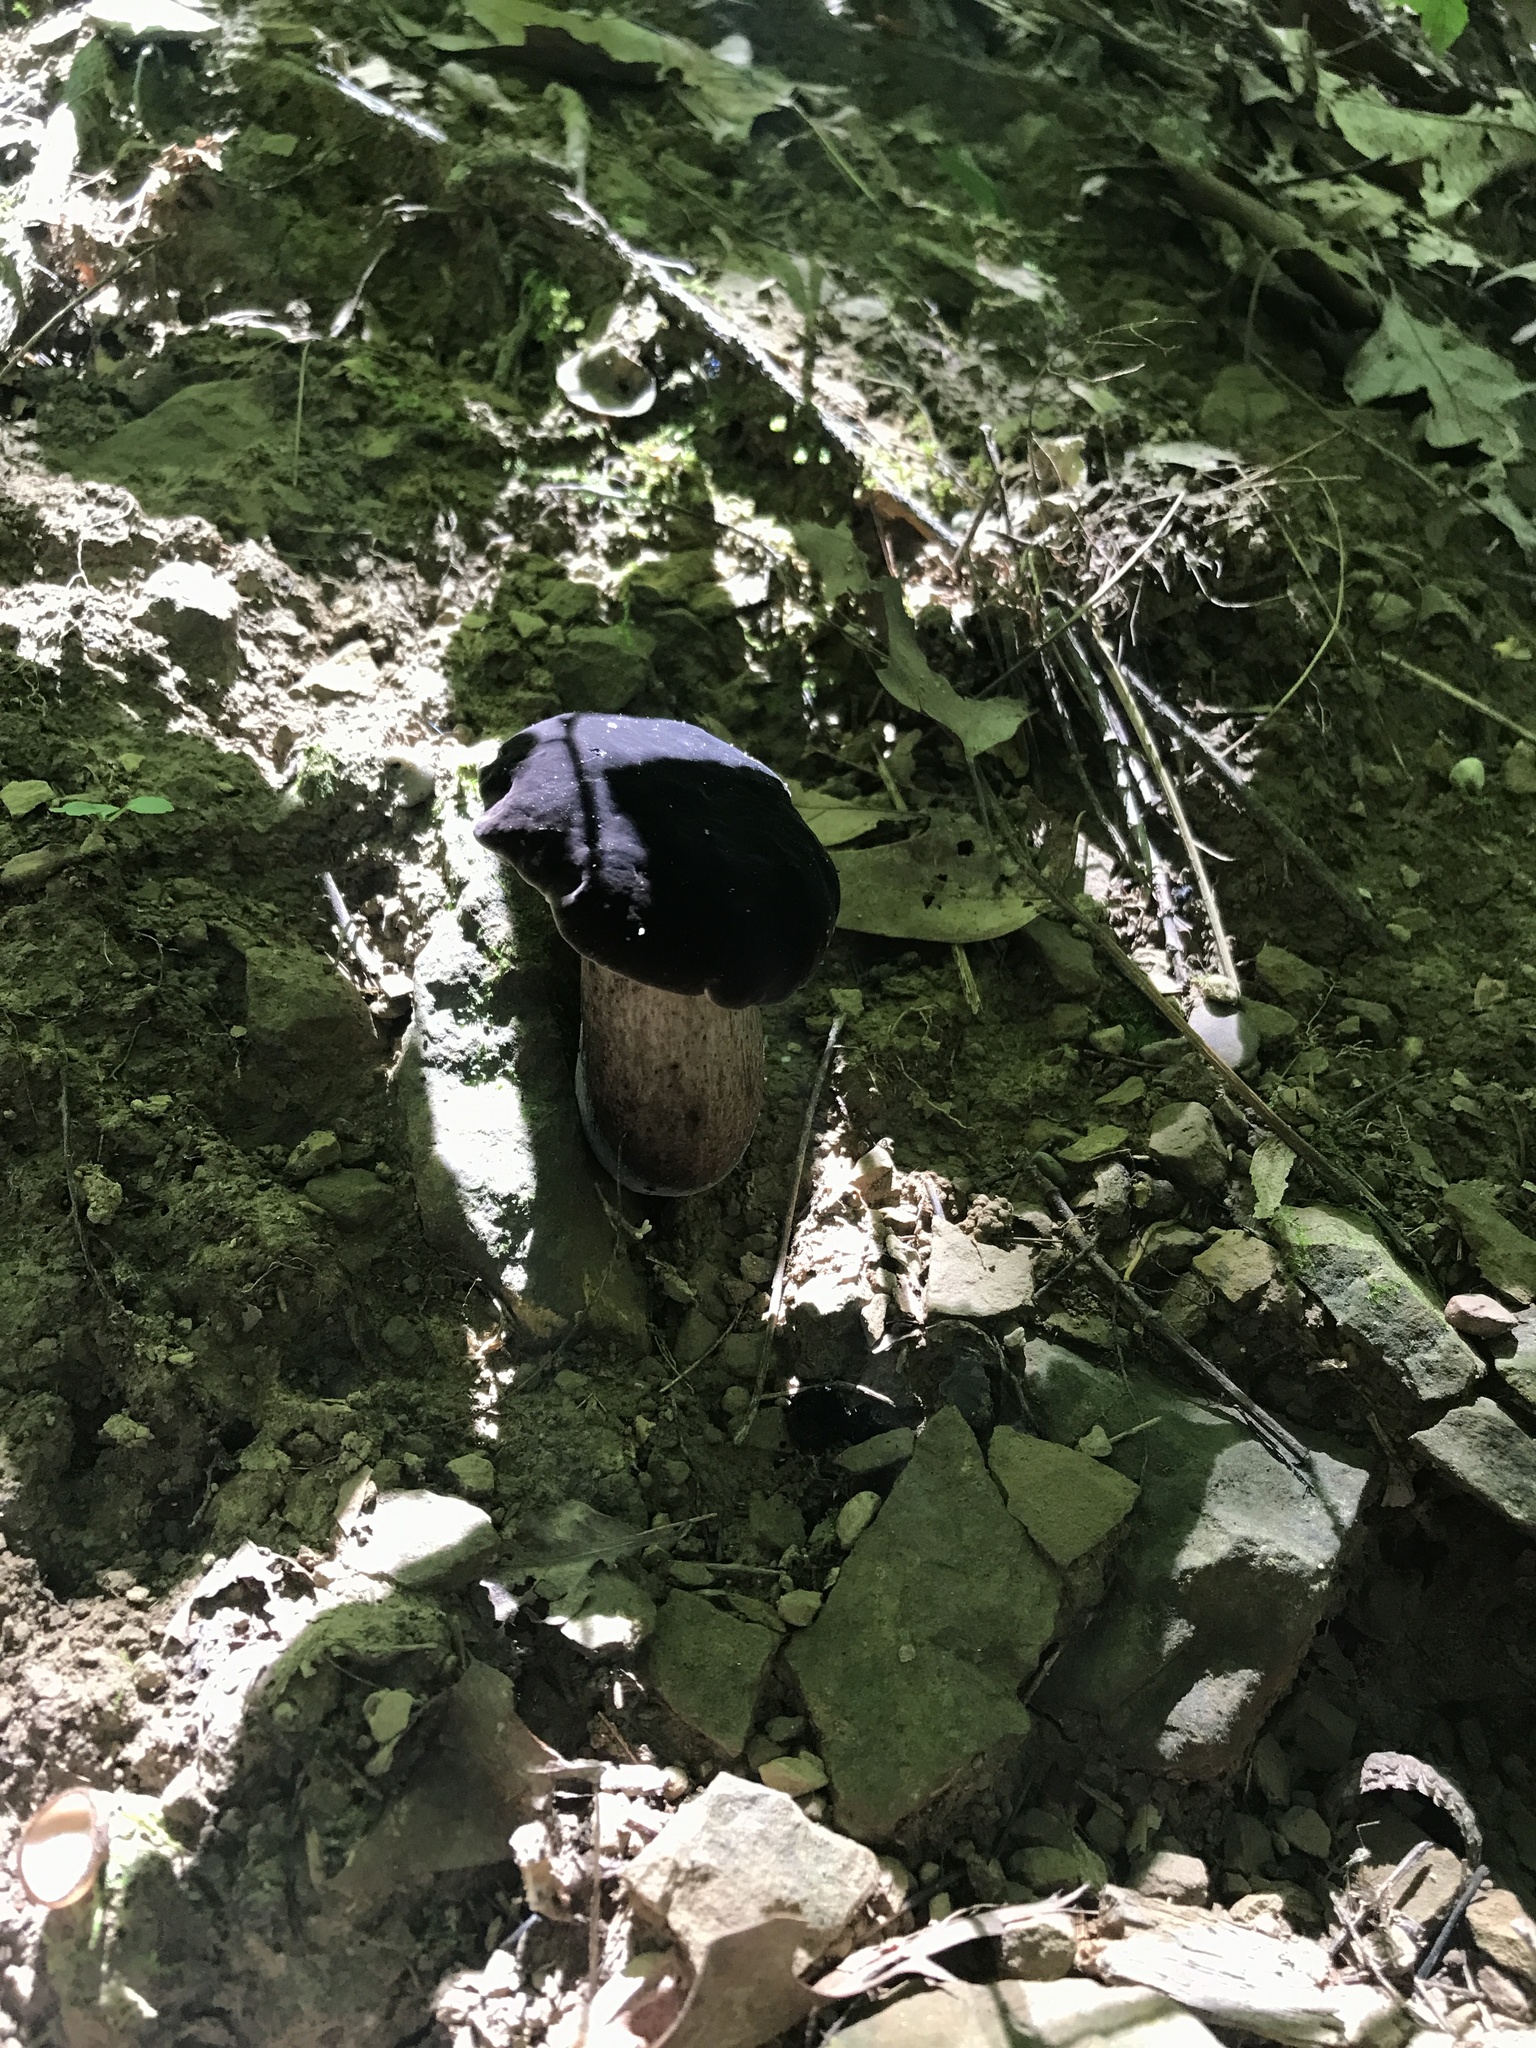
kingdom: Fungi
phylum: Basidiomycota
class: Agaricomycetes
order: Boletales
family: Boletaceae
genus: Tylopilus
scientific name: Tylopilus alboater
